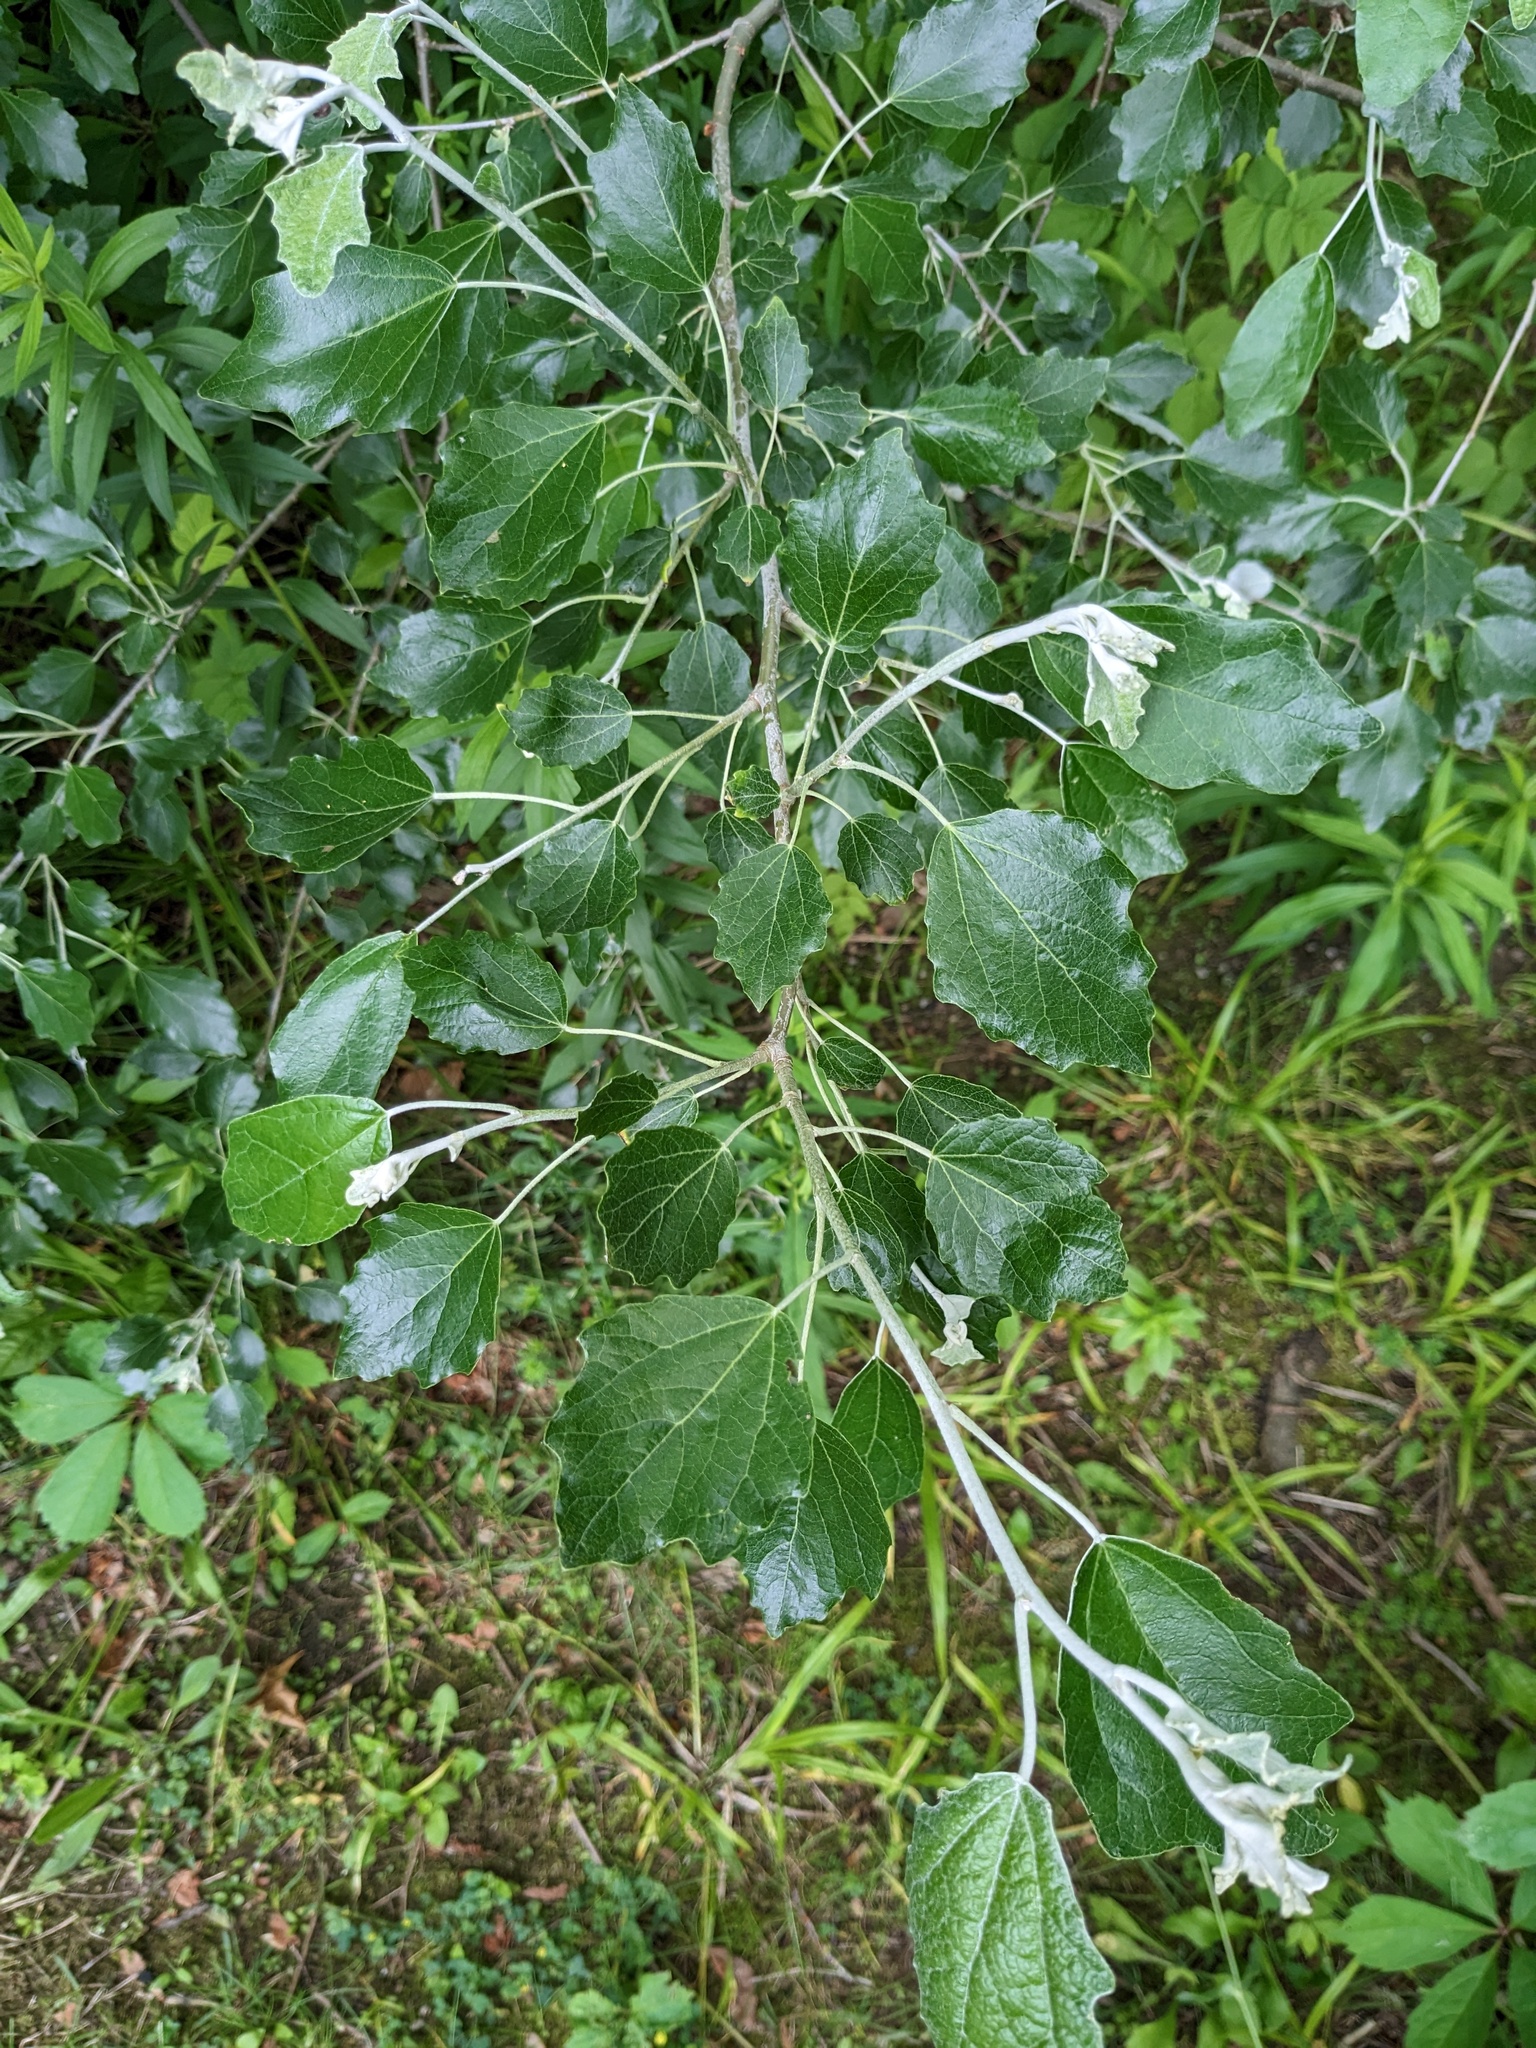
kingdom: Plantae
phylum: Tracheophyta
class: Magnoliopsida
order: Malpighiales
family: Salicaceae
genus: Populus
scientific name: Populus alba
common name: White poplar
